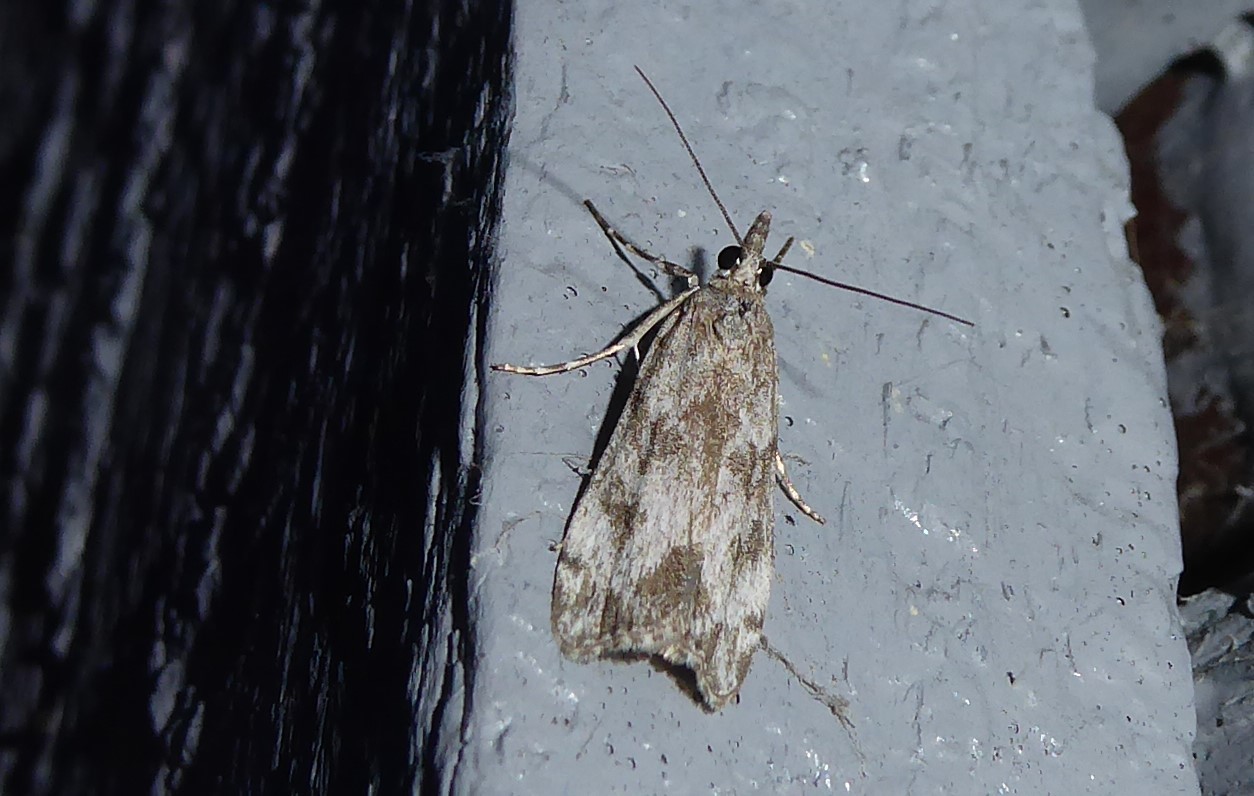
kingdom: Animalia
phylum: Arthropoda
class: Insecta
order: Lepidoptera
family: Crambidae
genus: Eudonia
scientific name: Eudonia rakaiensis
